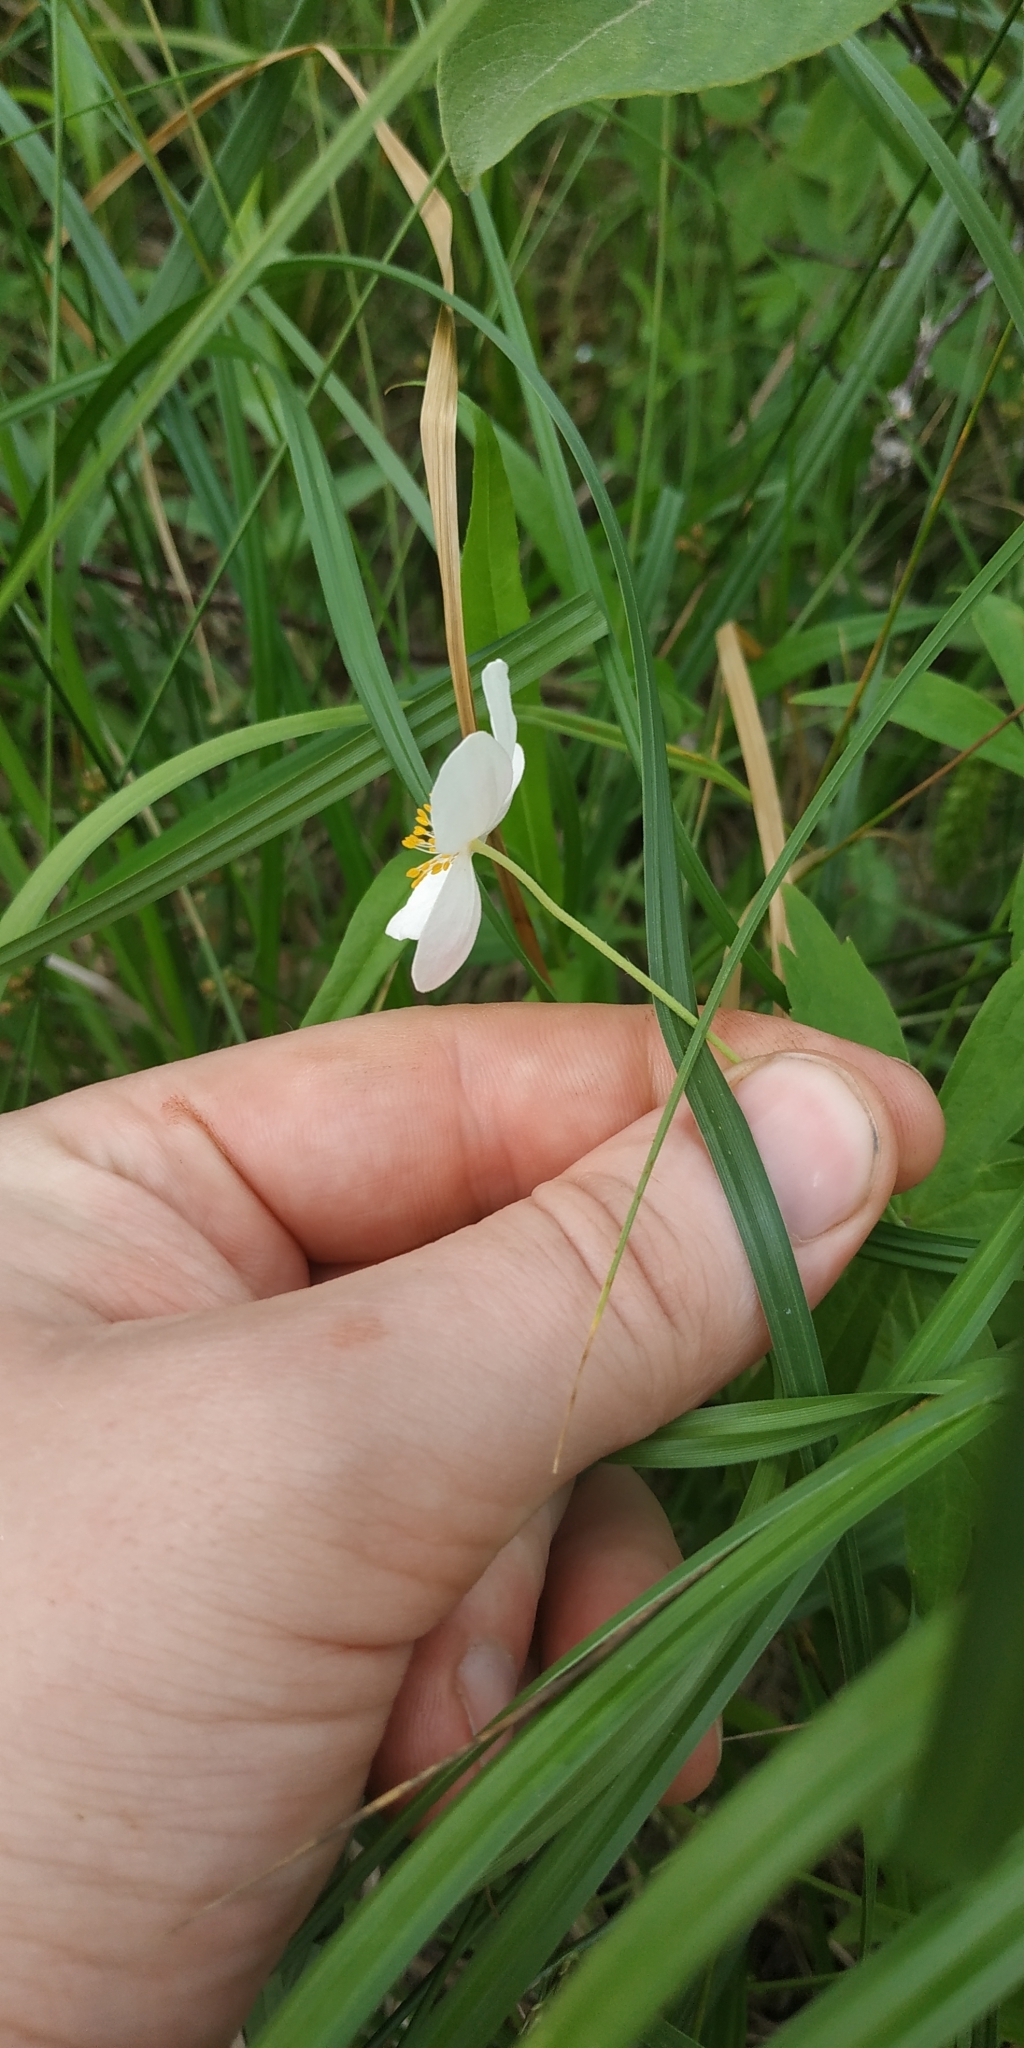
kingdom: Plantae
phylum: Tracheophyta
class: Magnoliopsida
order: Ranunculales
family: Ranunculaceae
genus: Anemonastrum
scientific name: Anemonastrum dichotomum
